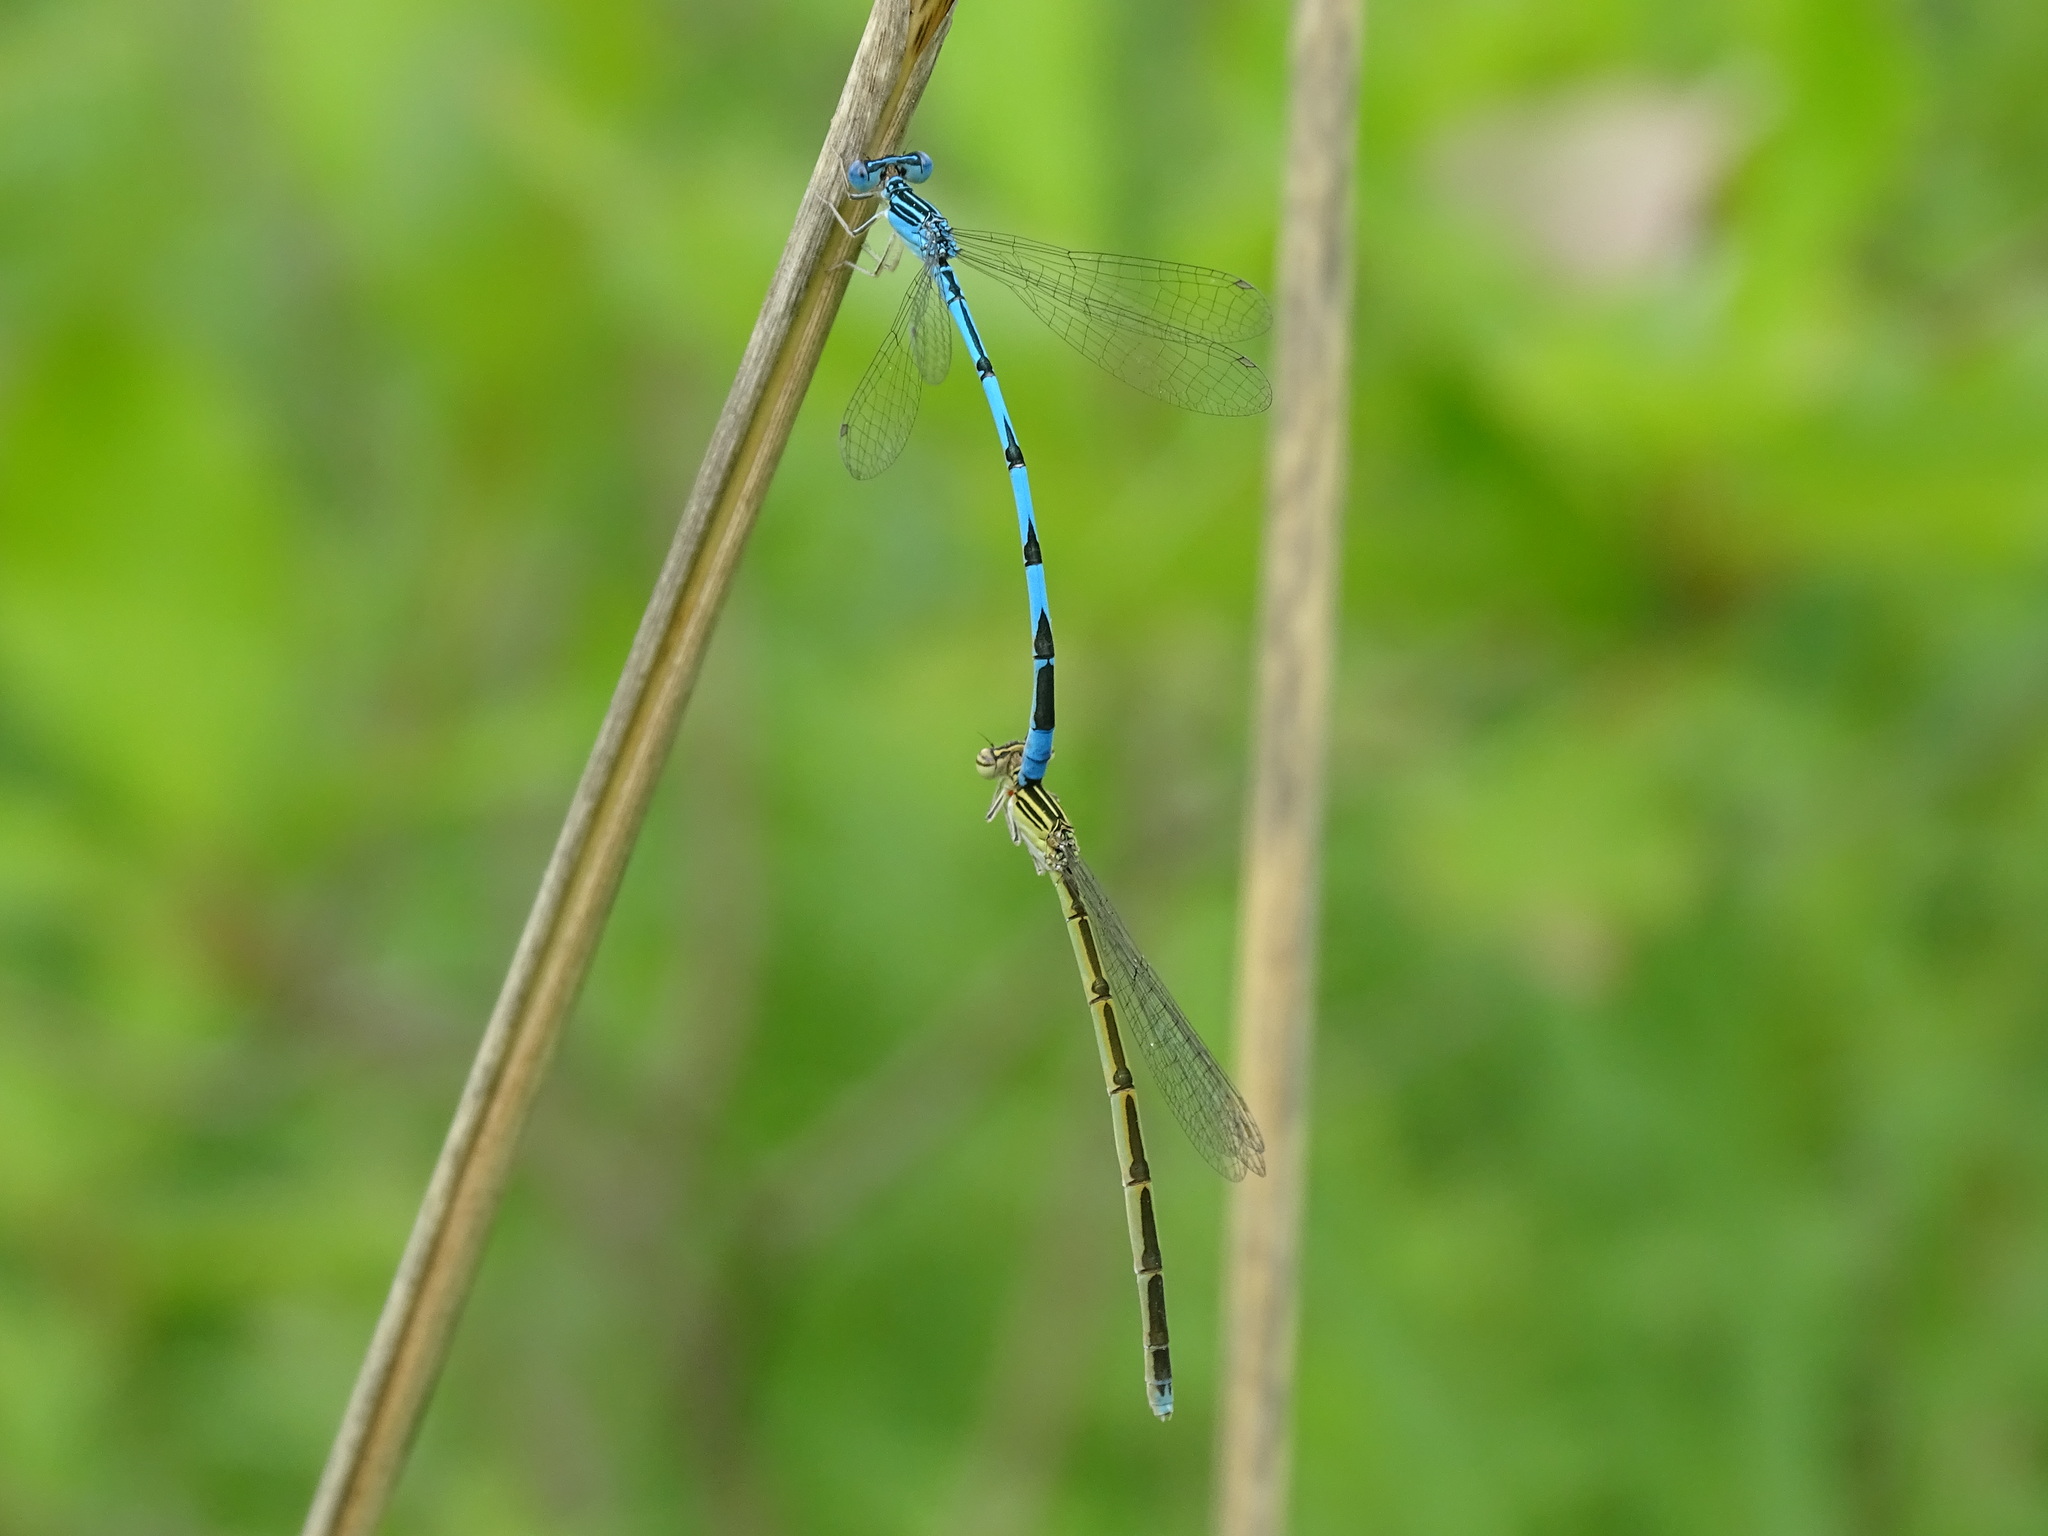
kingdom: Animalia
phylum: Arthropoda
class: Insecta
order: Odonata
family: Coenagrionidae
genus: Enallagma
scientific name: Enallagma basidens
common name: Double-striped bluet
